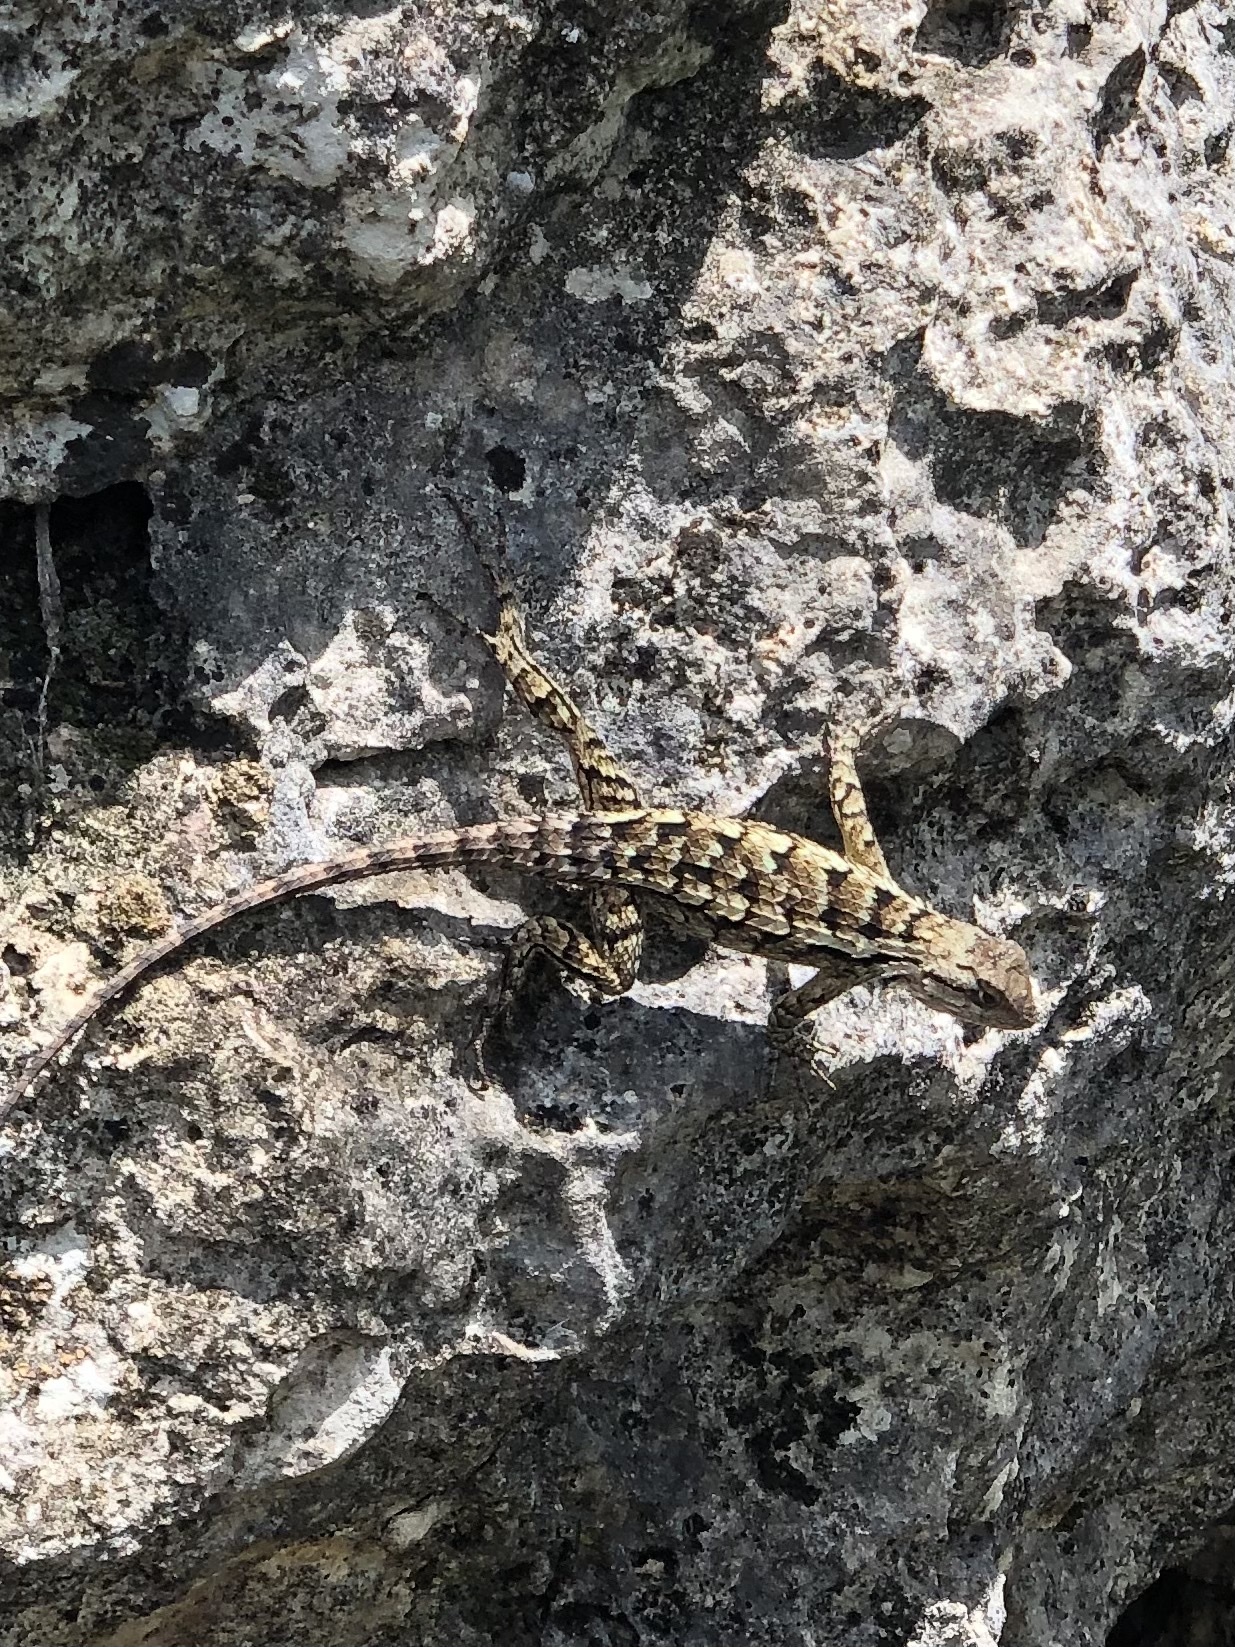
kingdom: Animalia
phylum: Chordata
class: Squamata
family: Phrynosomatidae
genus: Sceloporus
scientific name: Sceloporus olivaceus
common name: Texas spiny lizard
